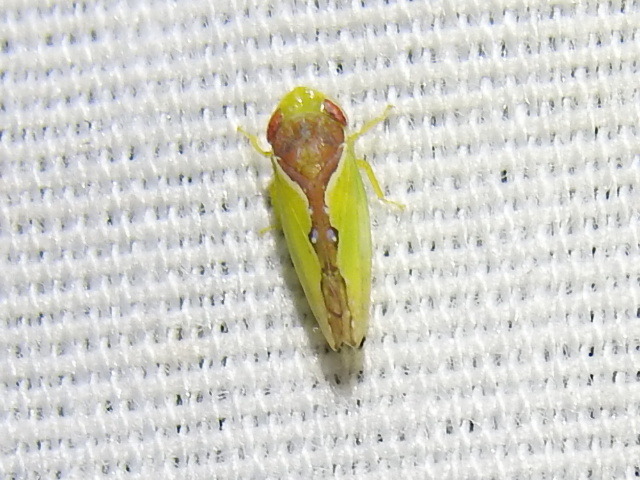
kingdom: Animalia
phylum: Arthropoda
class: Insecta
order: Hemiptera
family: Cicadellidae
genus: Omansobara ing
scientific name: Omansobara ing Omansobara palliolata
